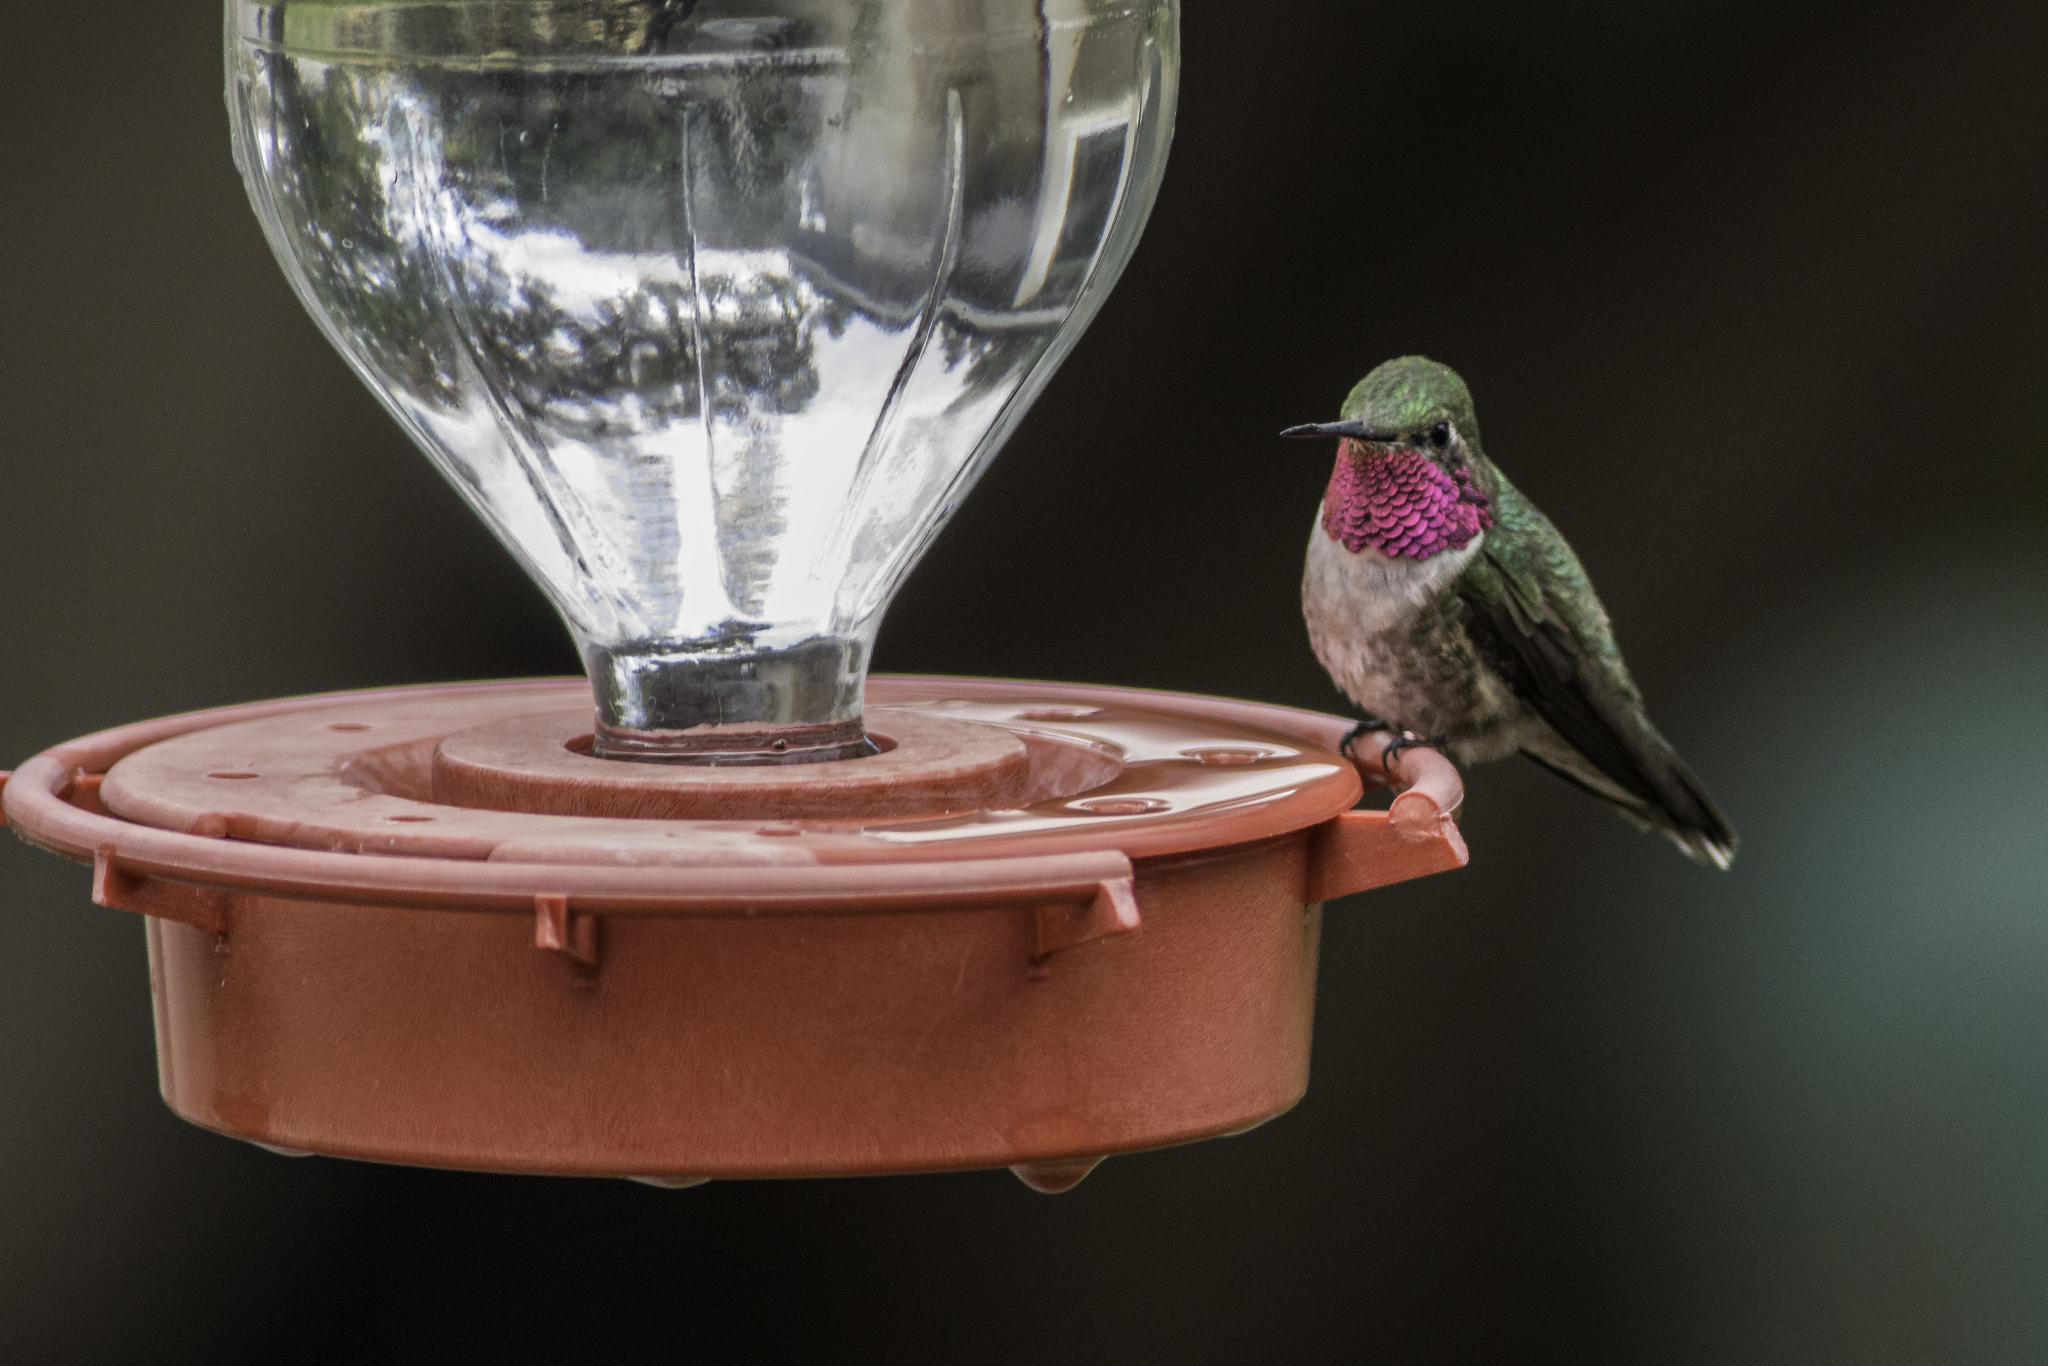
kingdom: Animalia
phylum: Chordata
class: Aves
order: Apodiformes
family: Trochilidae
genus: Selasphorus
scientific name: Selasphorus platycercus
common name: Broad-tailed hummingbird
